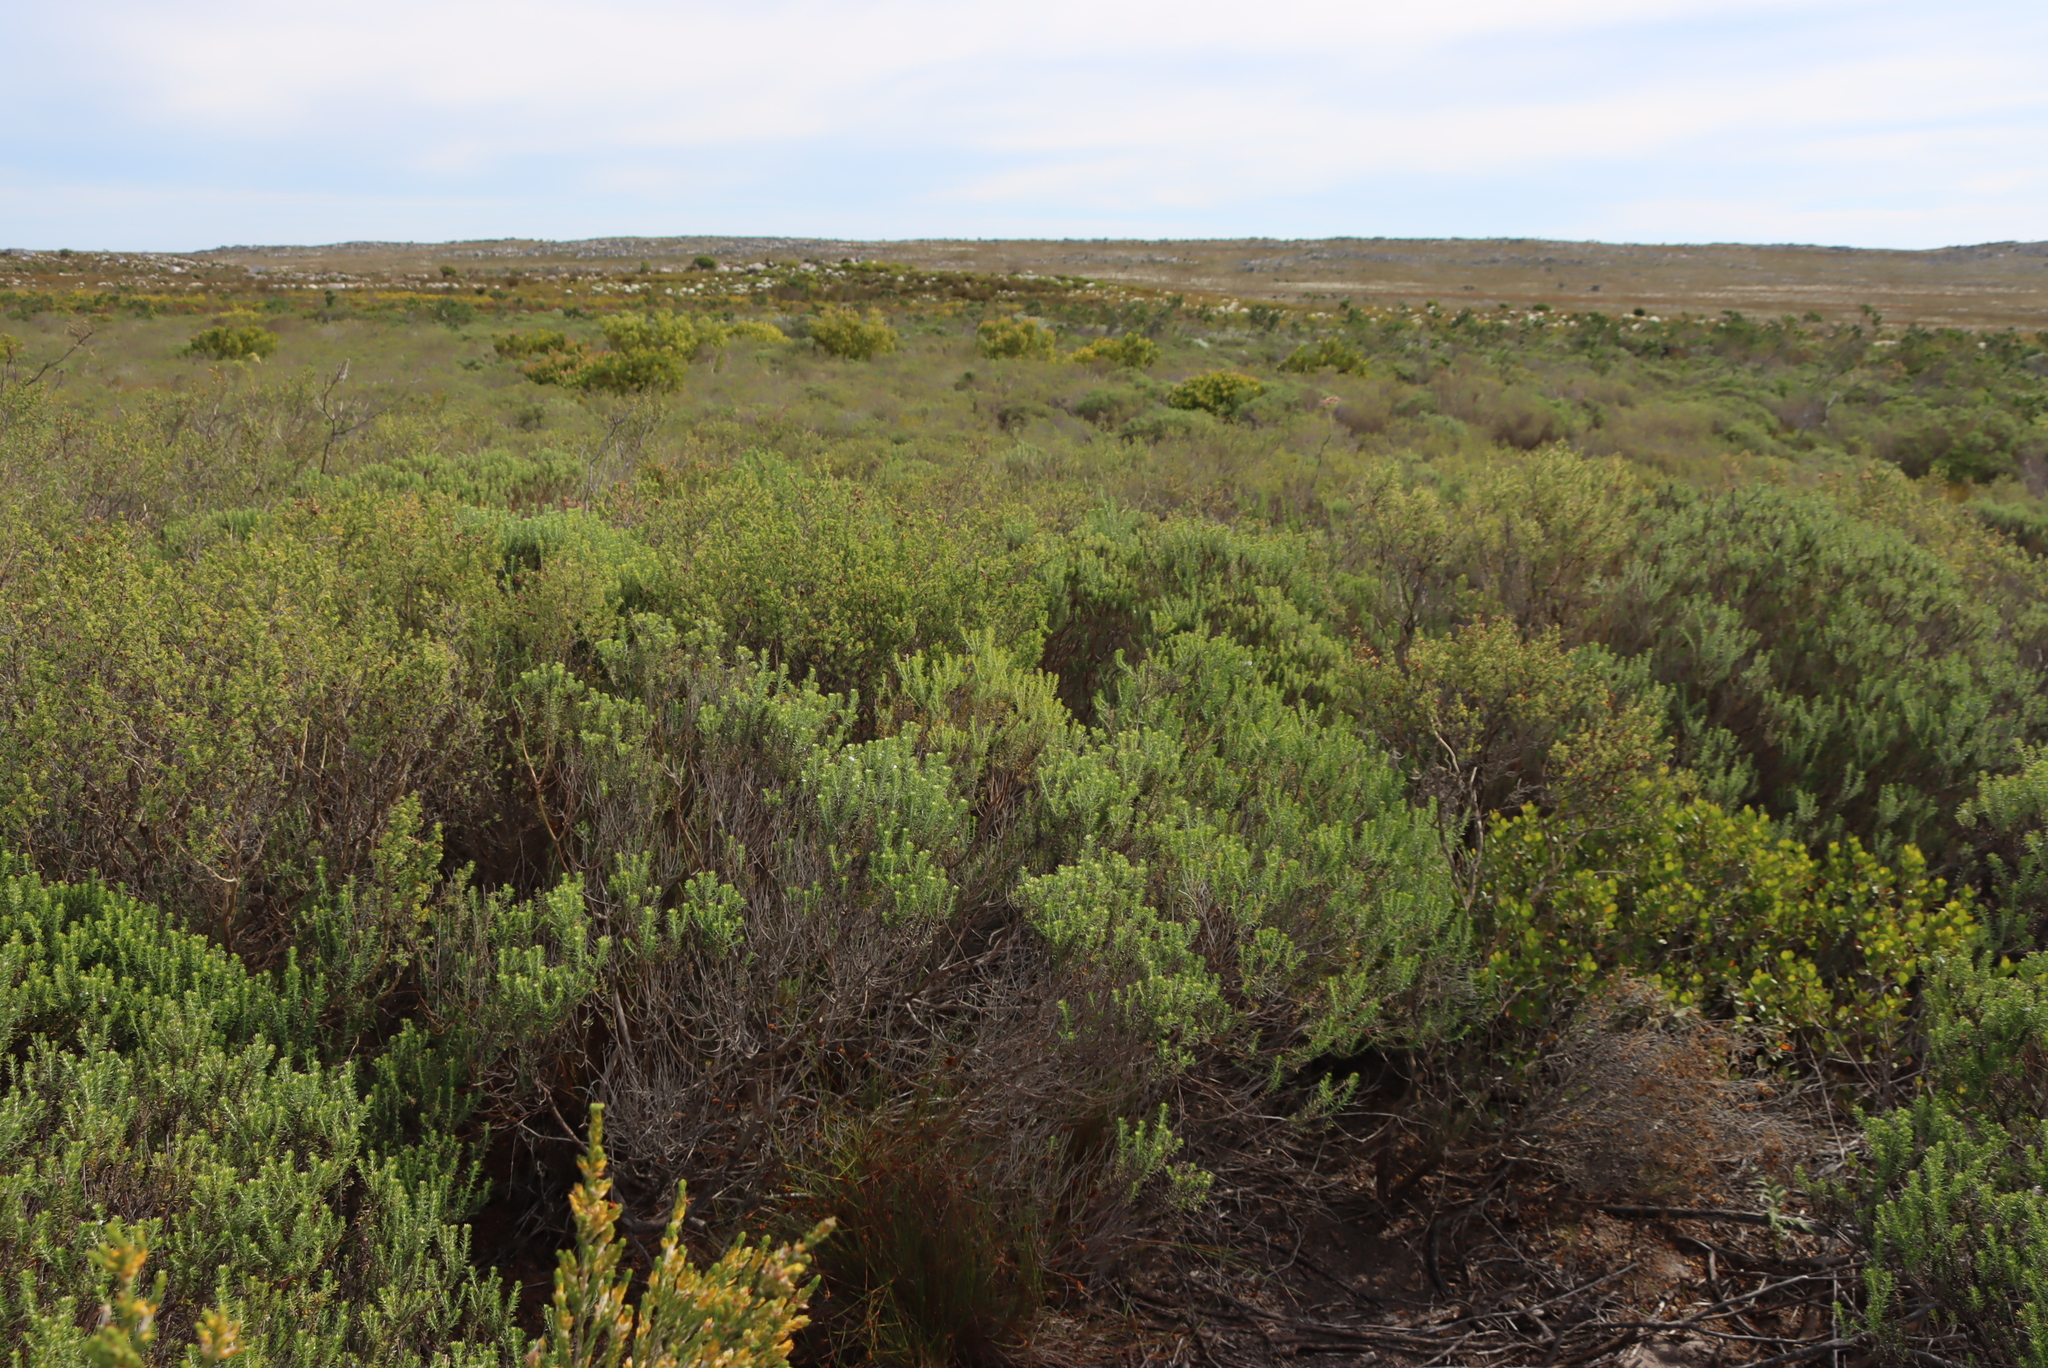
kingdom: Plantae
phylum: Tracheophyta
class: Magnoliopsida
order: Fabales
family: Fabaceae
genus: Aspalathus
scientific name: Aspalathus carnosa
